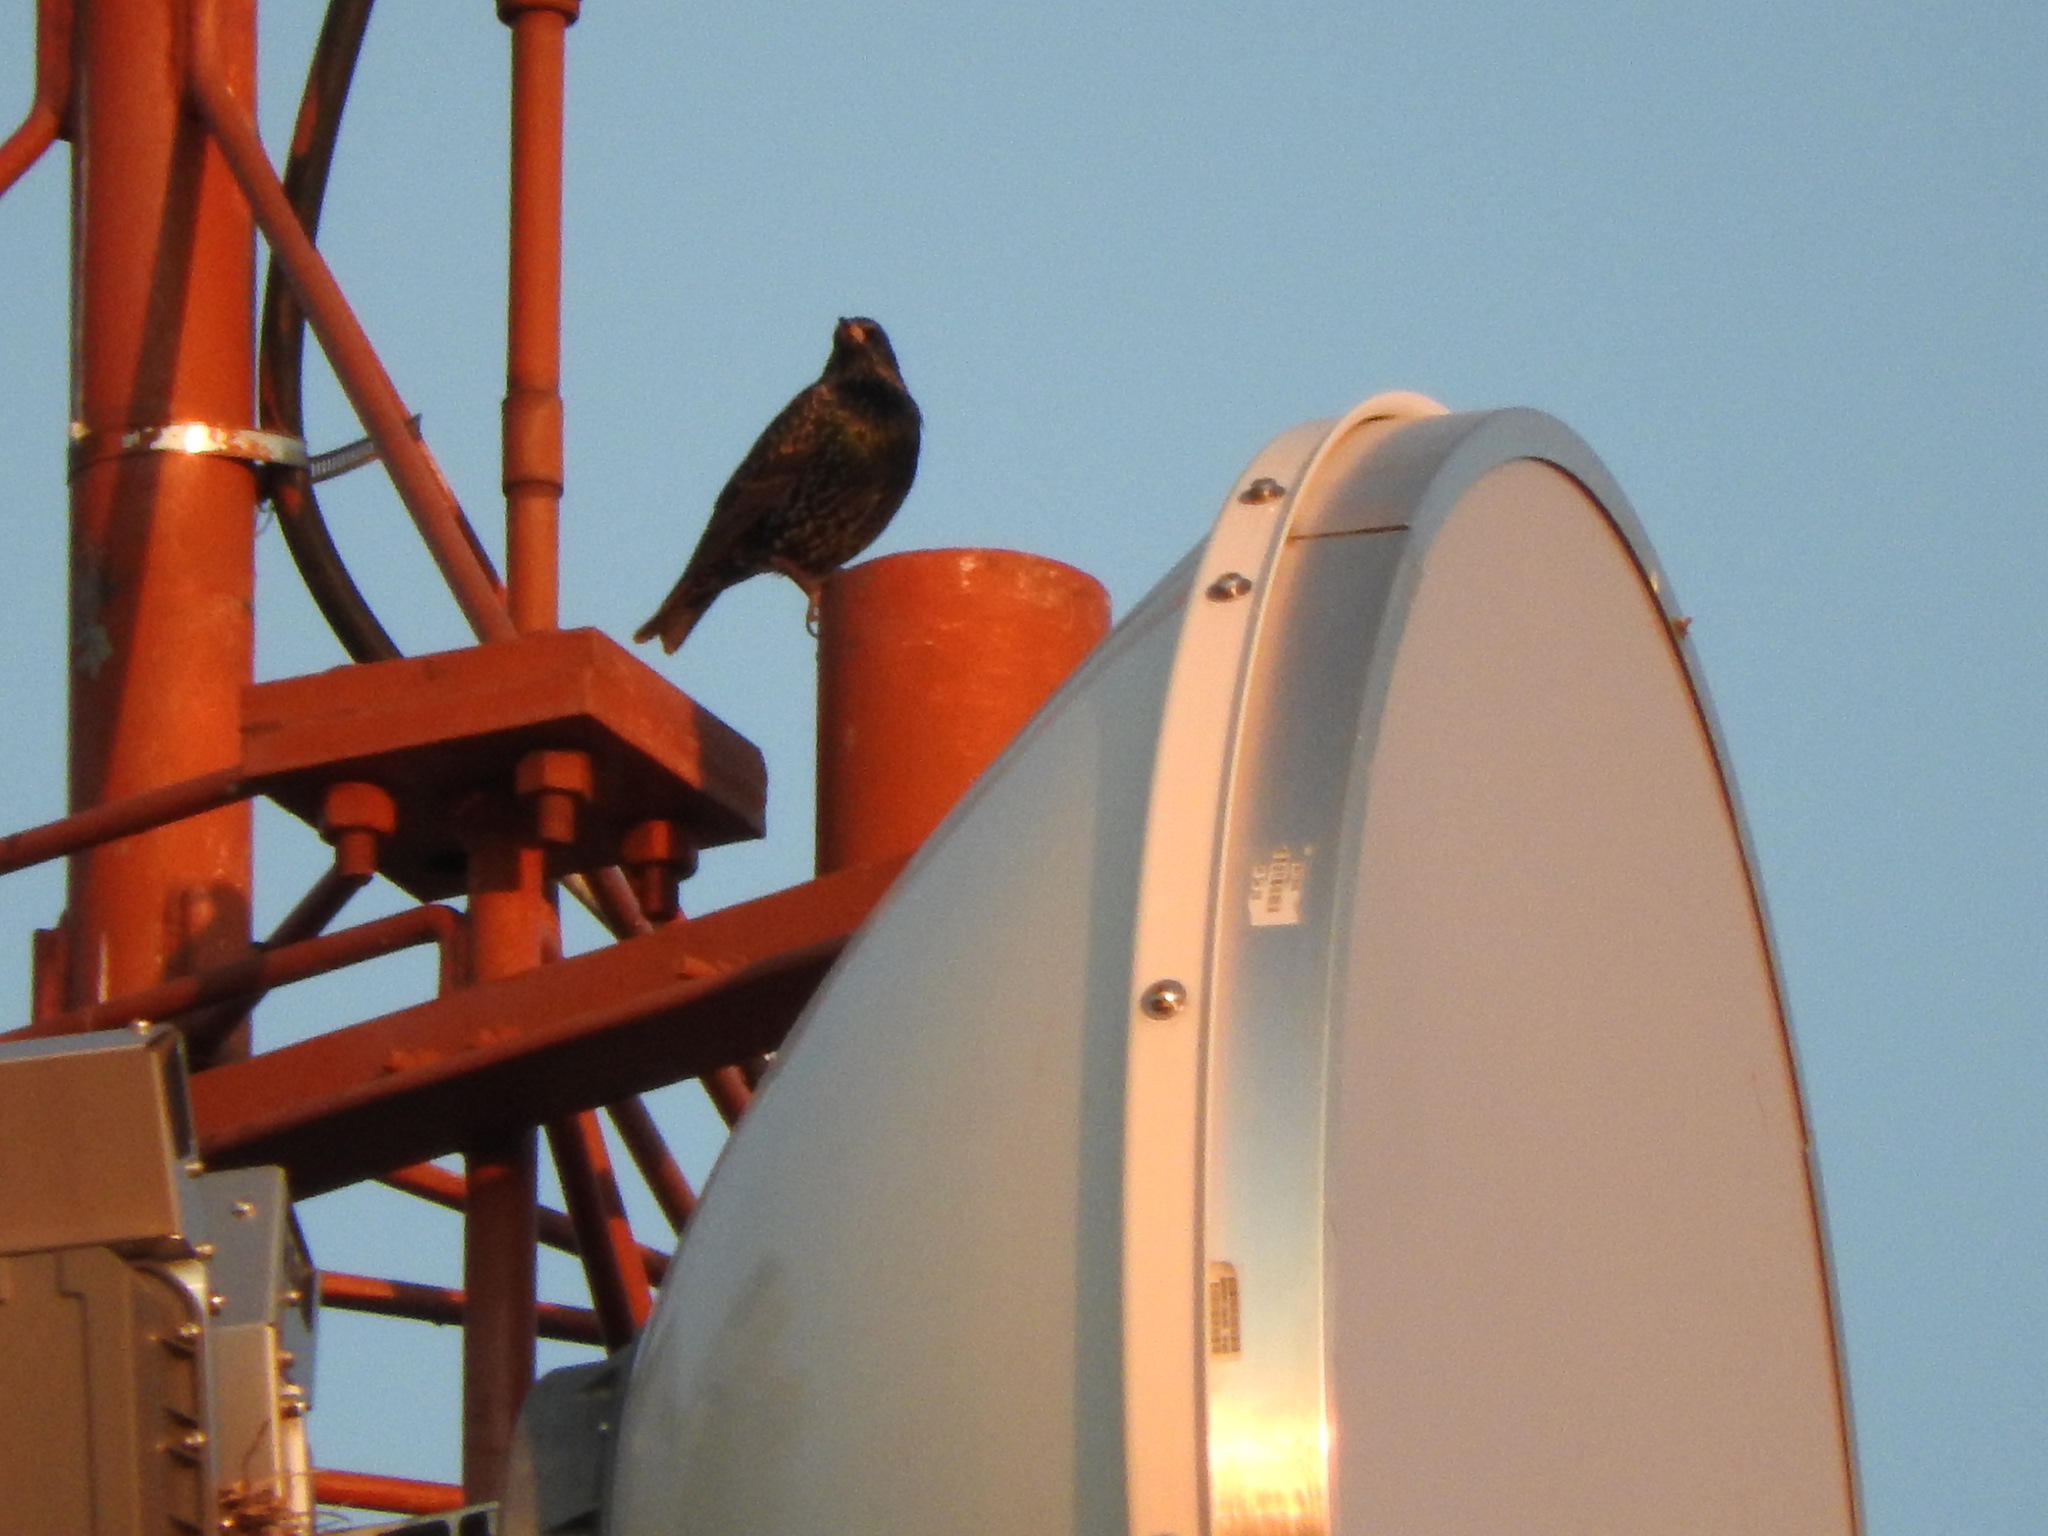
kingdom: Animalia
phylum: Chordata
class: Aves
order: Passeriformes
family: Sturnidae
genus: Sturnus
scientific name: Sturnus vulgaris
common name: Common starling
